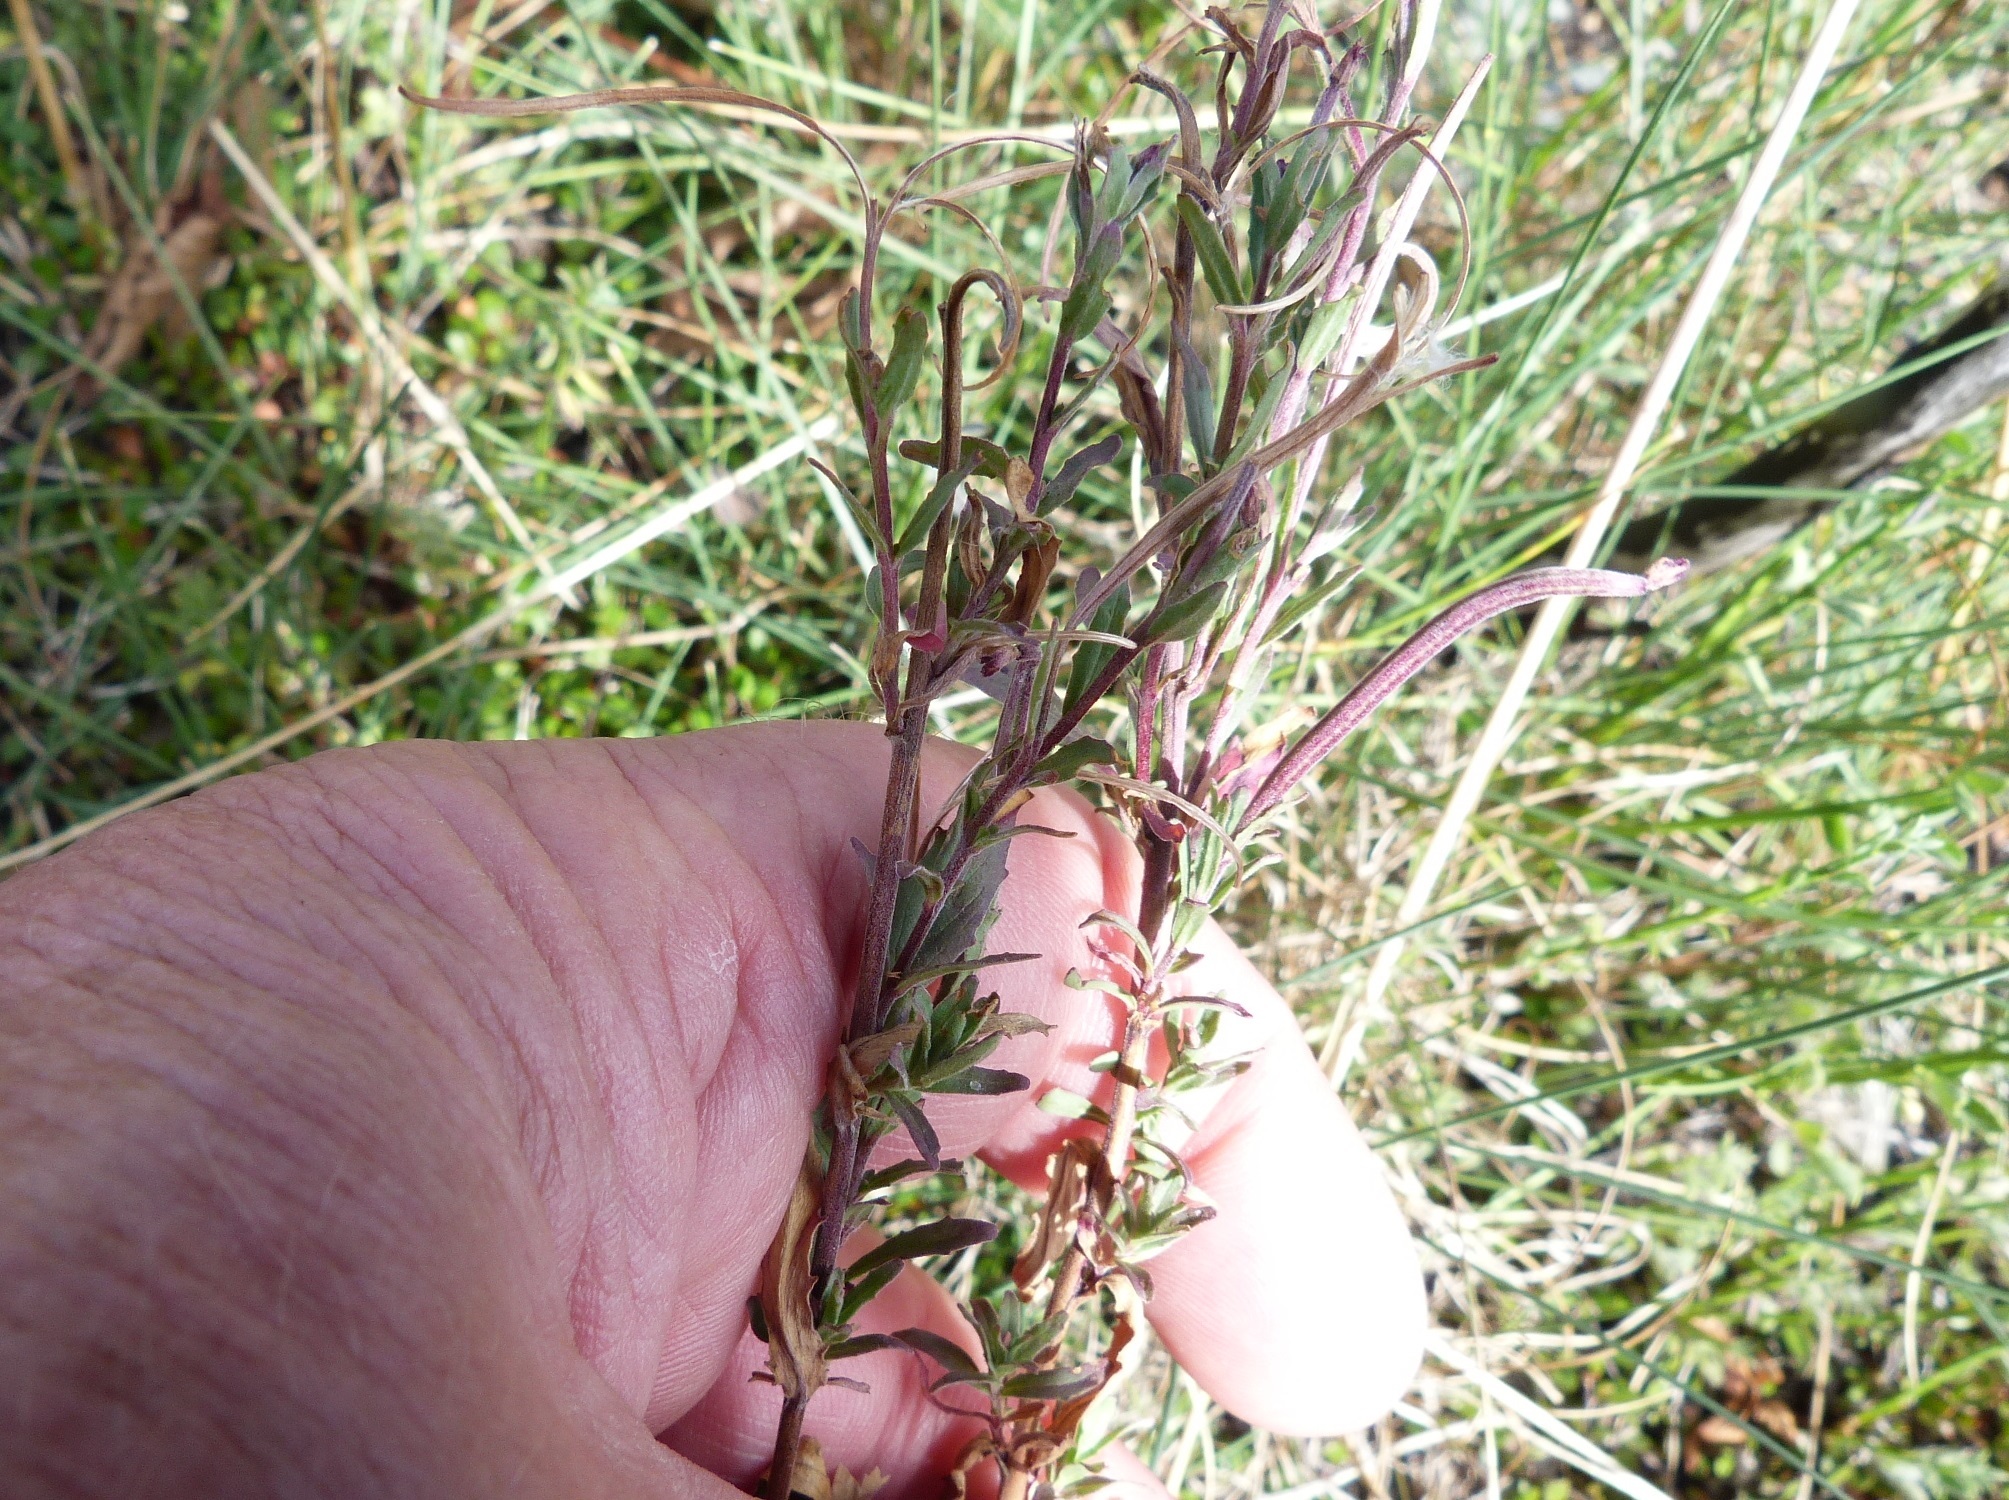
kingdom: Plantae
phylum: Tracheophyta
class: Magnoliopsida
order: Myrtales
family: Onagraceae
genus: Epilobium
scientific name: Epilobium billardierianum
